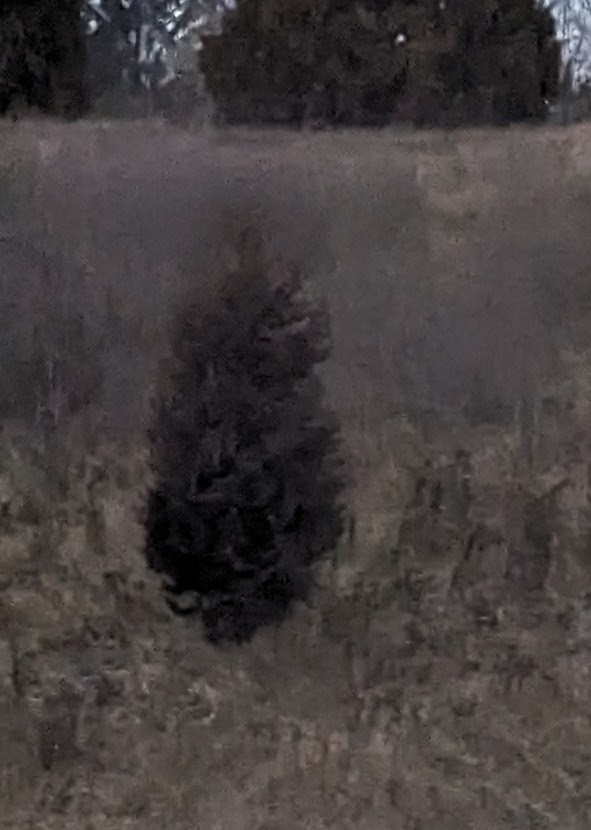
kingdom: Plantae
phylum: Tracheophyta
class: Pinopsida
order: Pinales
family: Cupressaceae
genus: Juniperus
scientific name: Juniperus virginiana
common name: Red juniper
